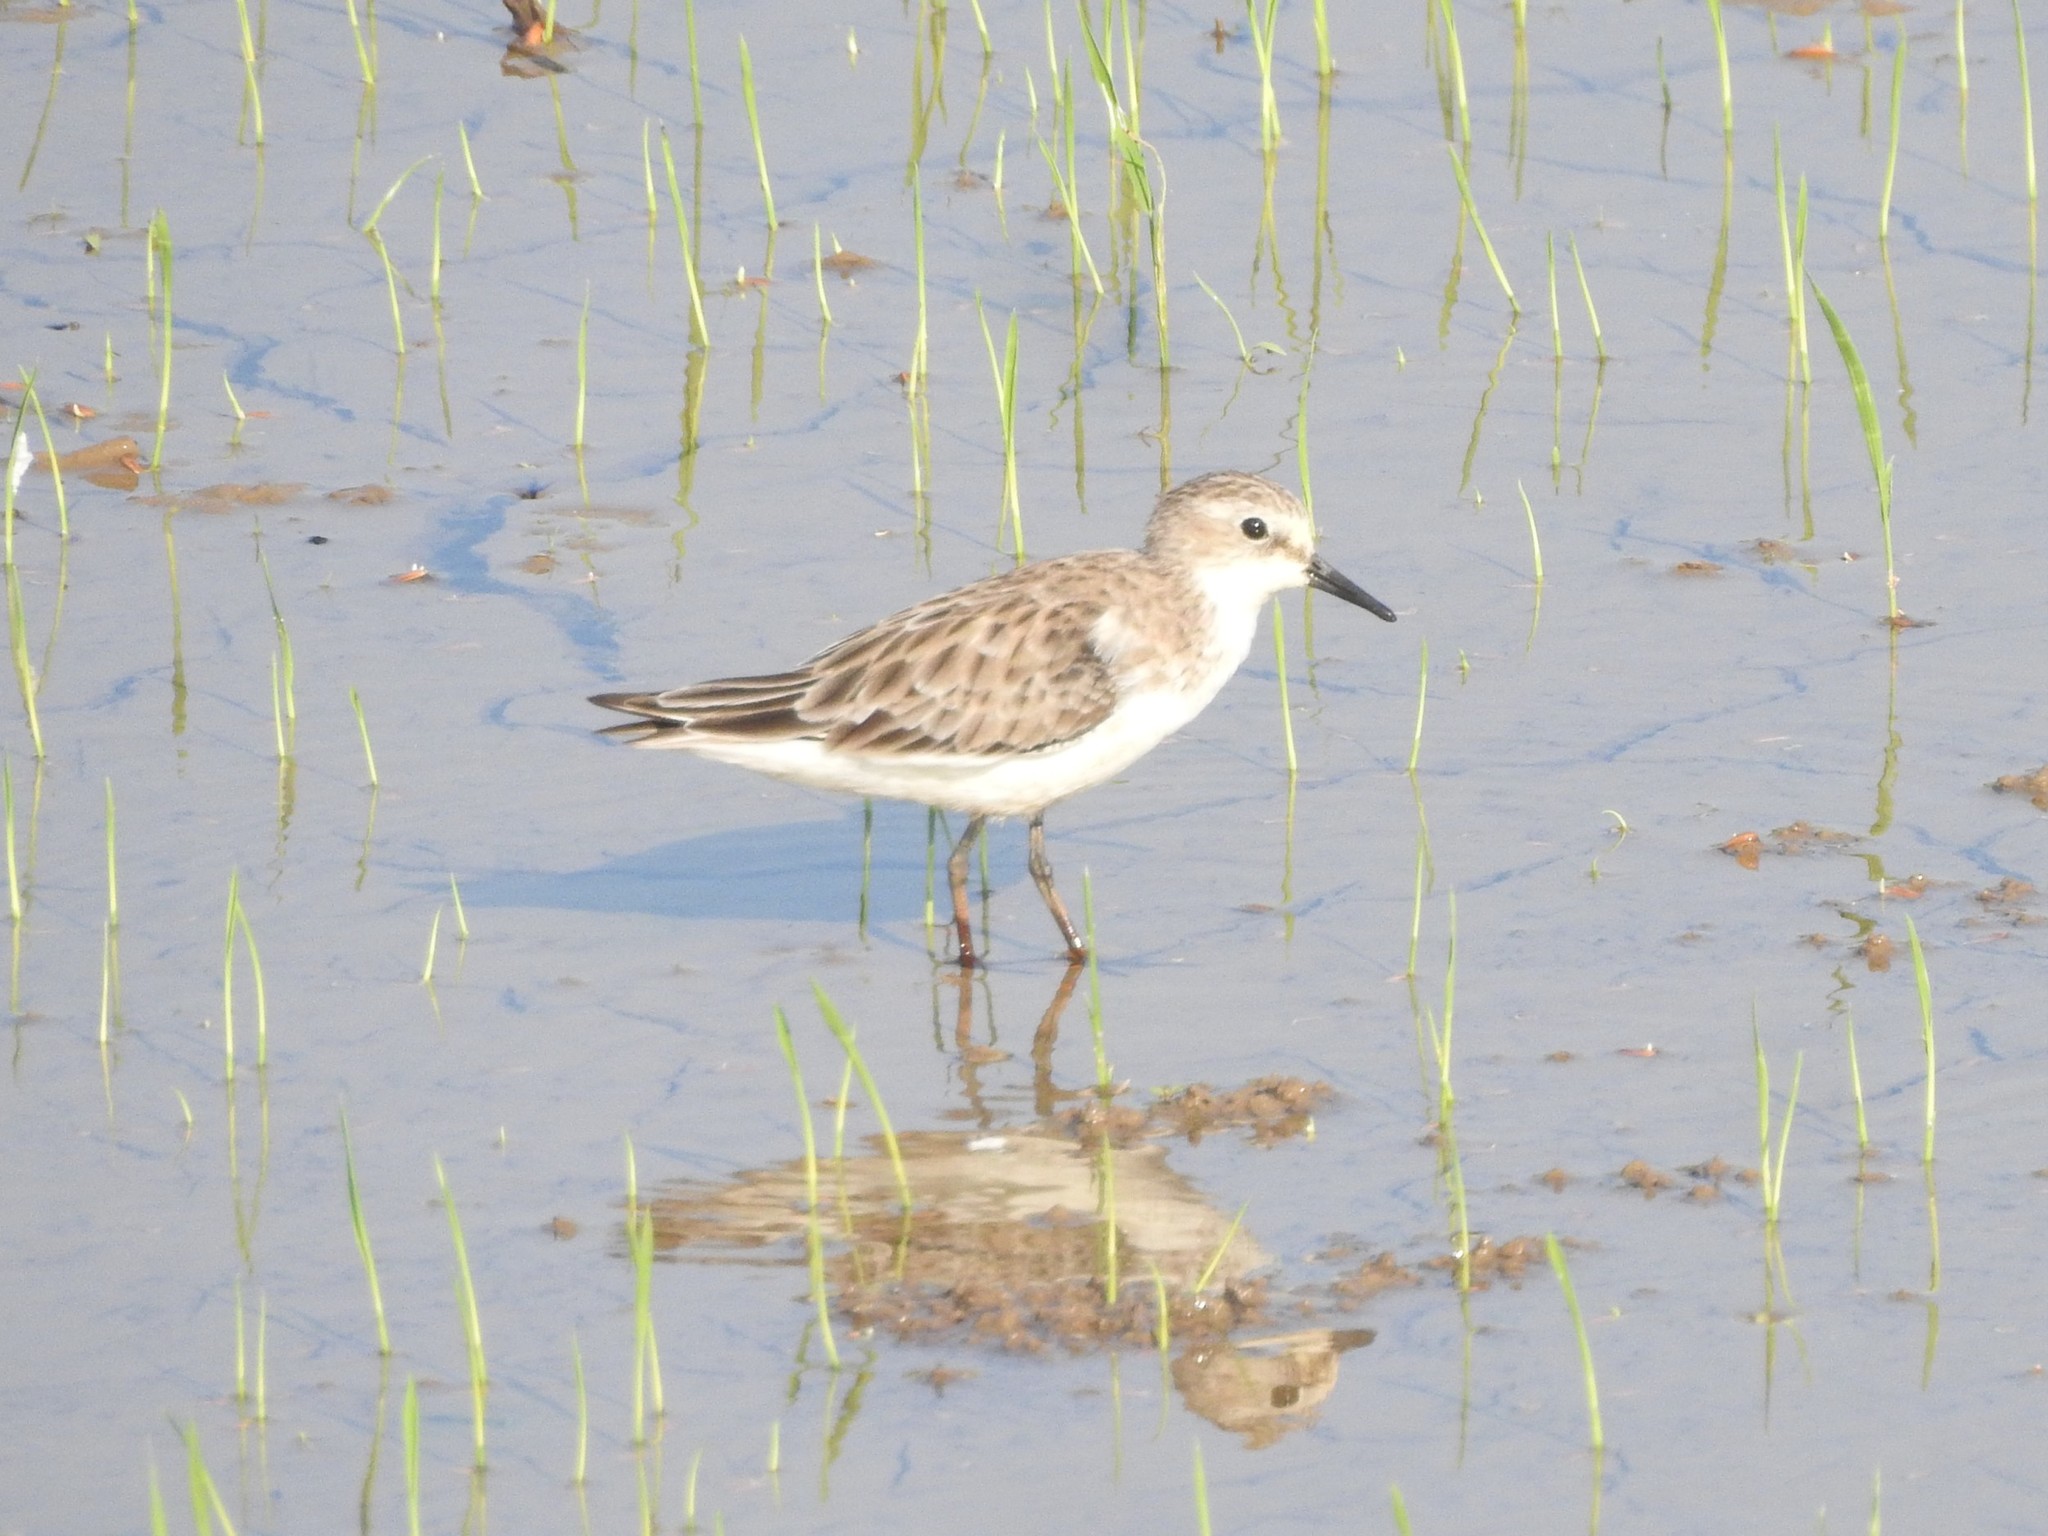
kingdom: Animalia
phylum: Chordata
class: Aves
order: Charadriiformes
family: Scolopacidae
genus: Calidris
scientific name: Calidris minuta
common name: Little stint
